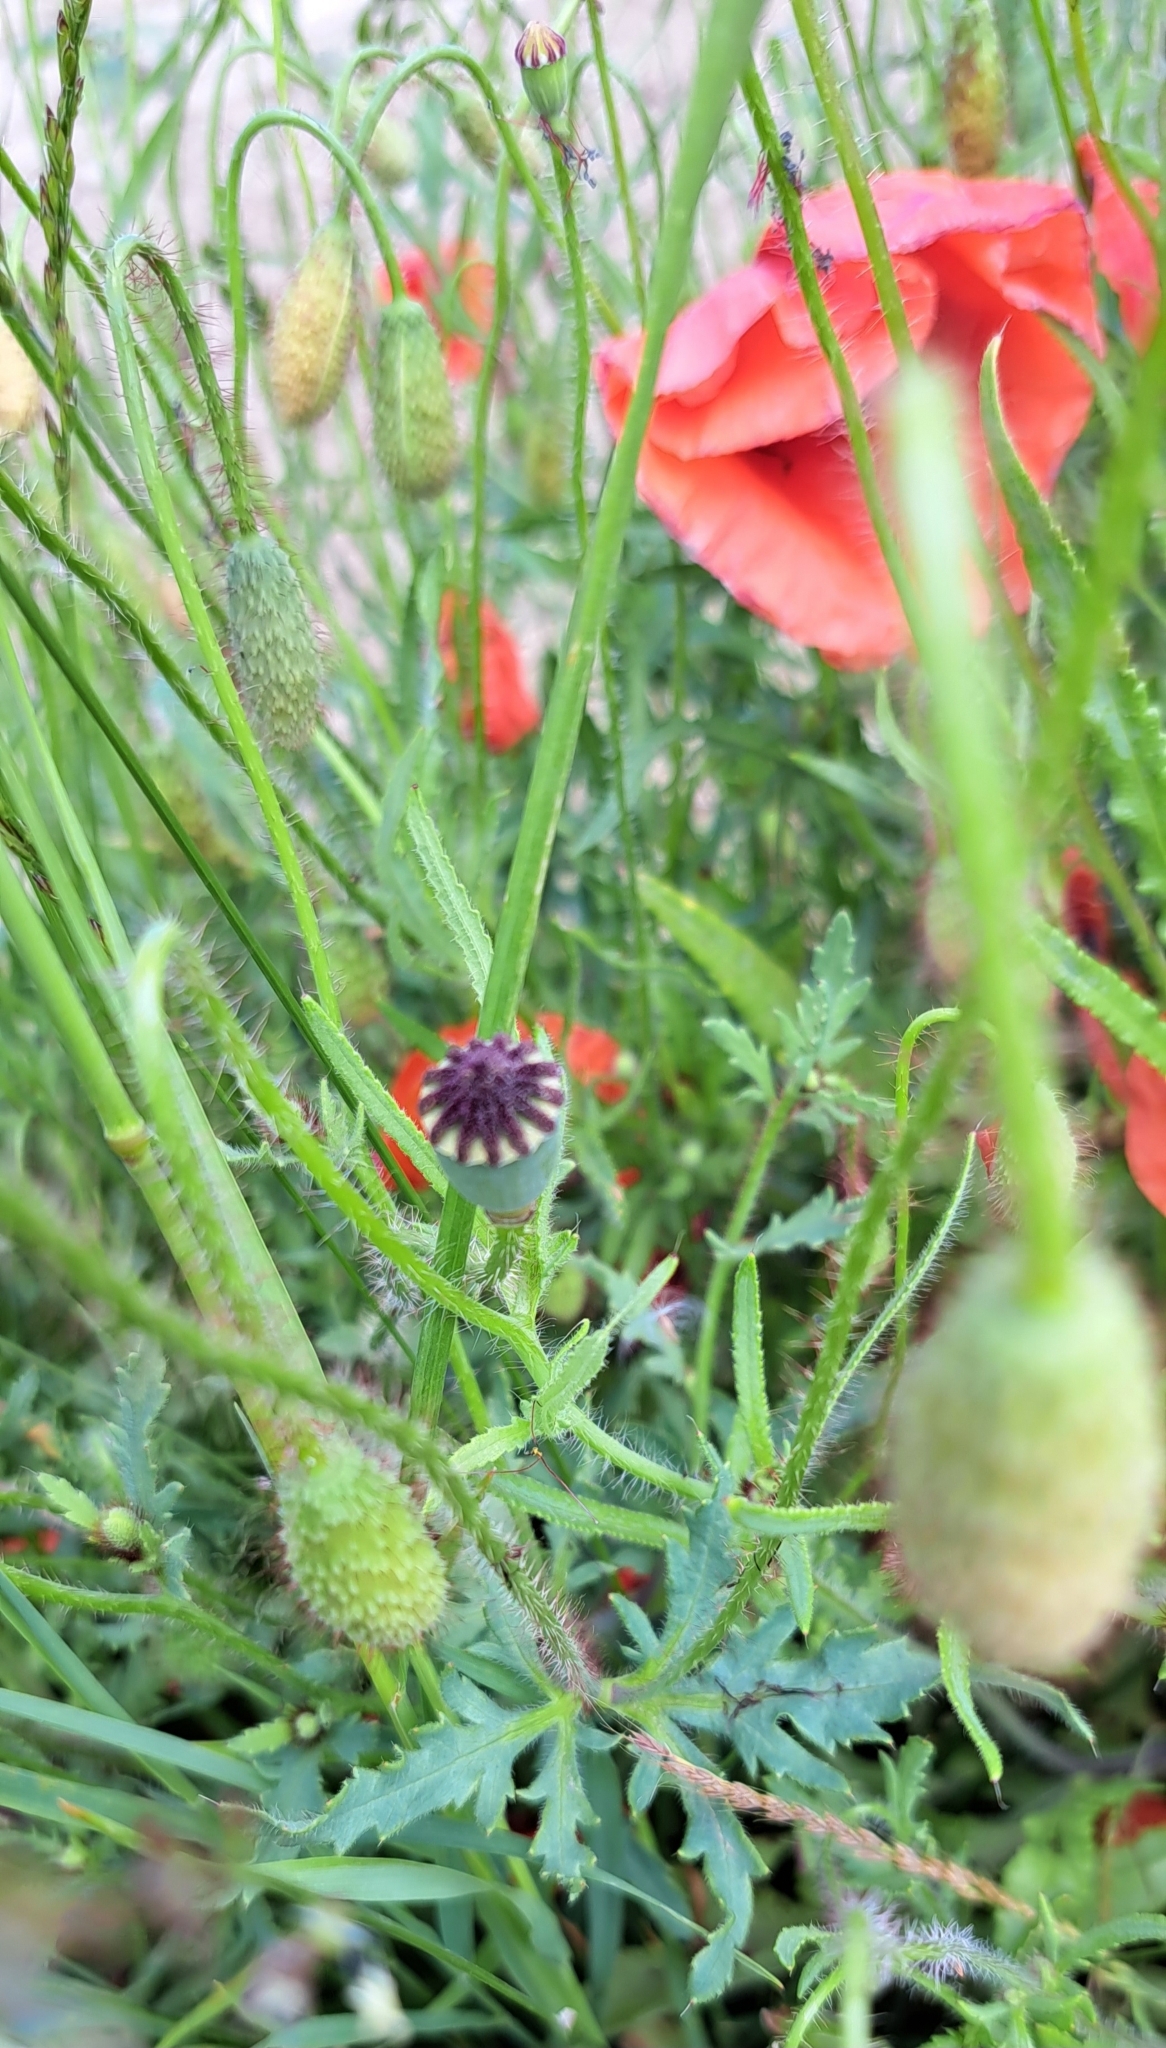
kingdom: Plantae
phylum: Tracheophyta
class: Magnoliopsida
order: Ranunculales
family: Papaveraceae
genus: Papaver
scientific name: Papaver rhoeas
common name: Corn poppy
